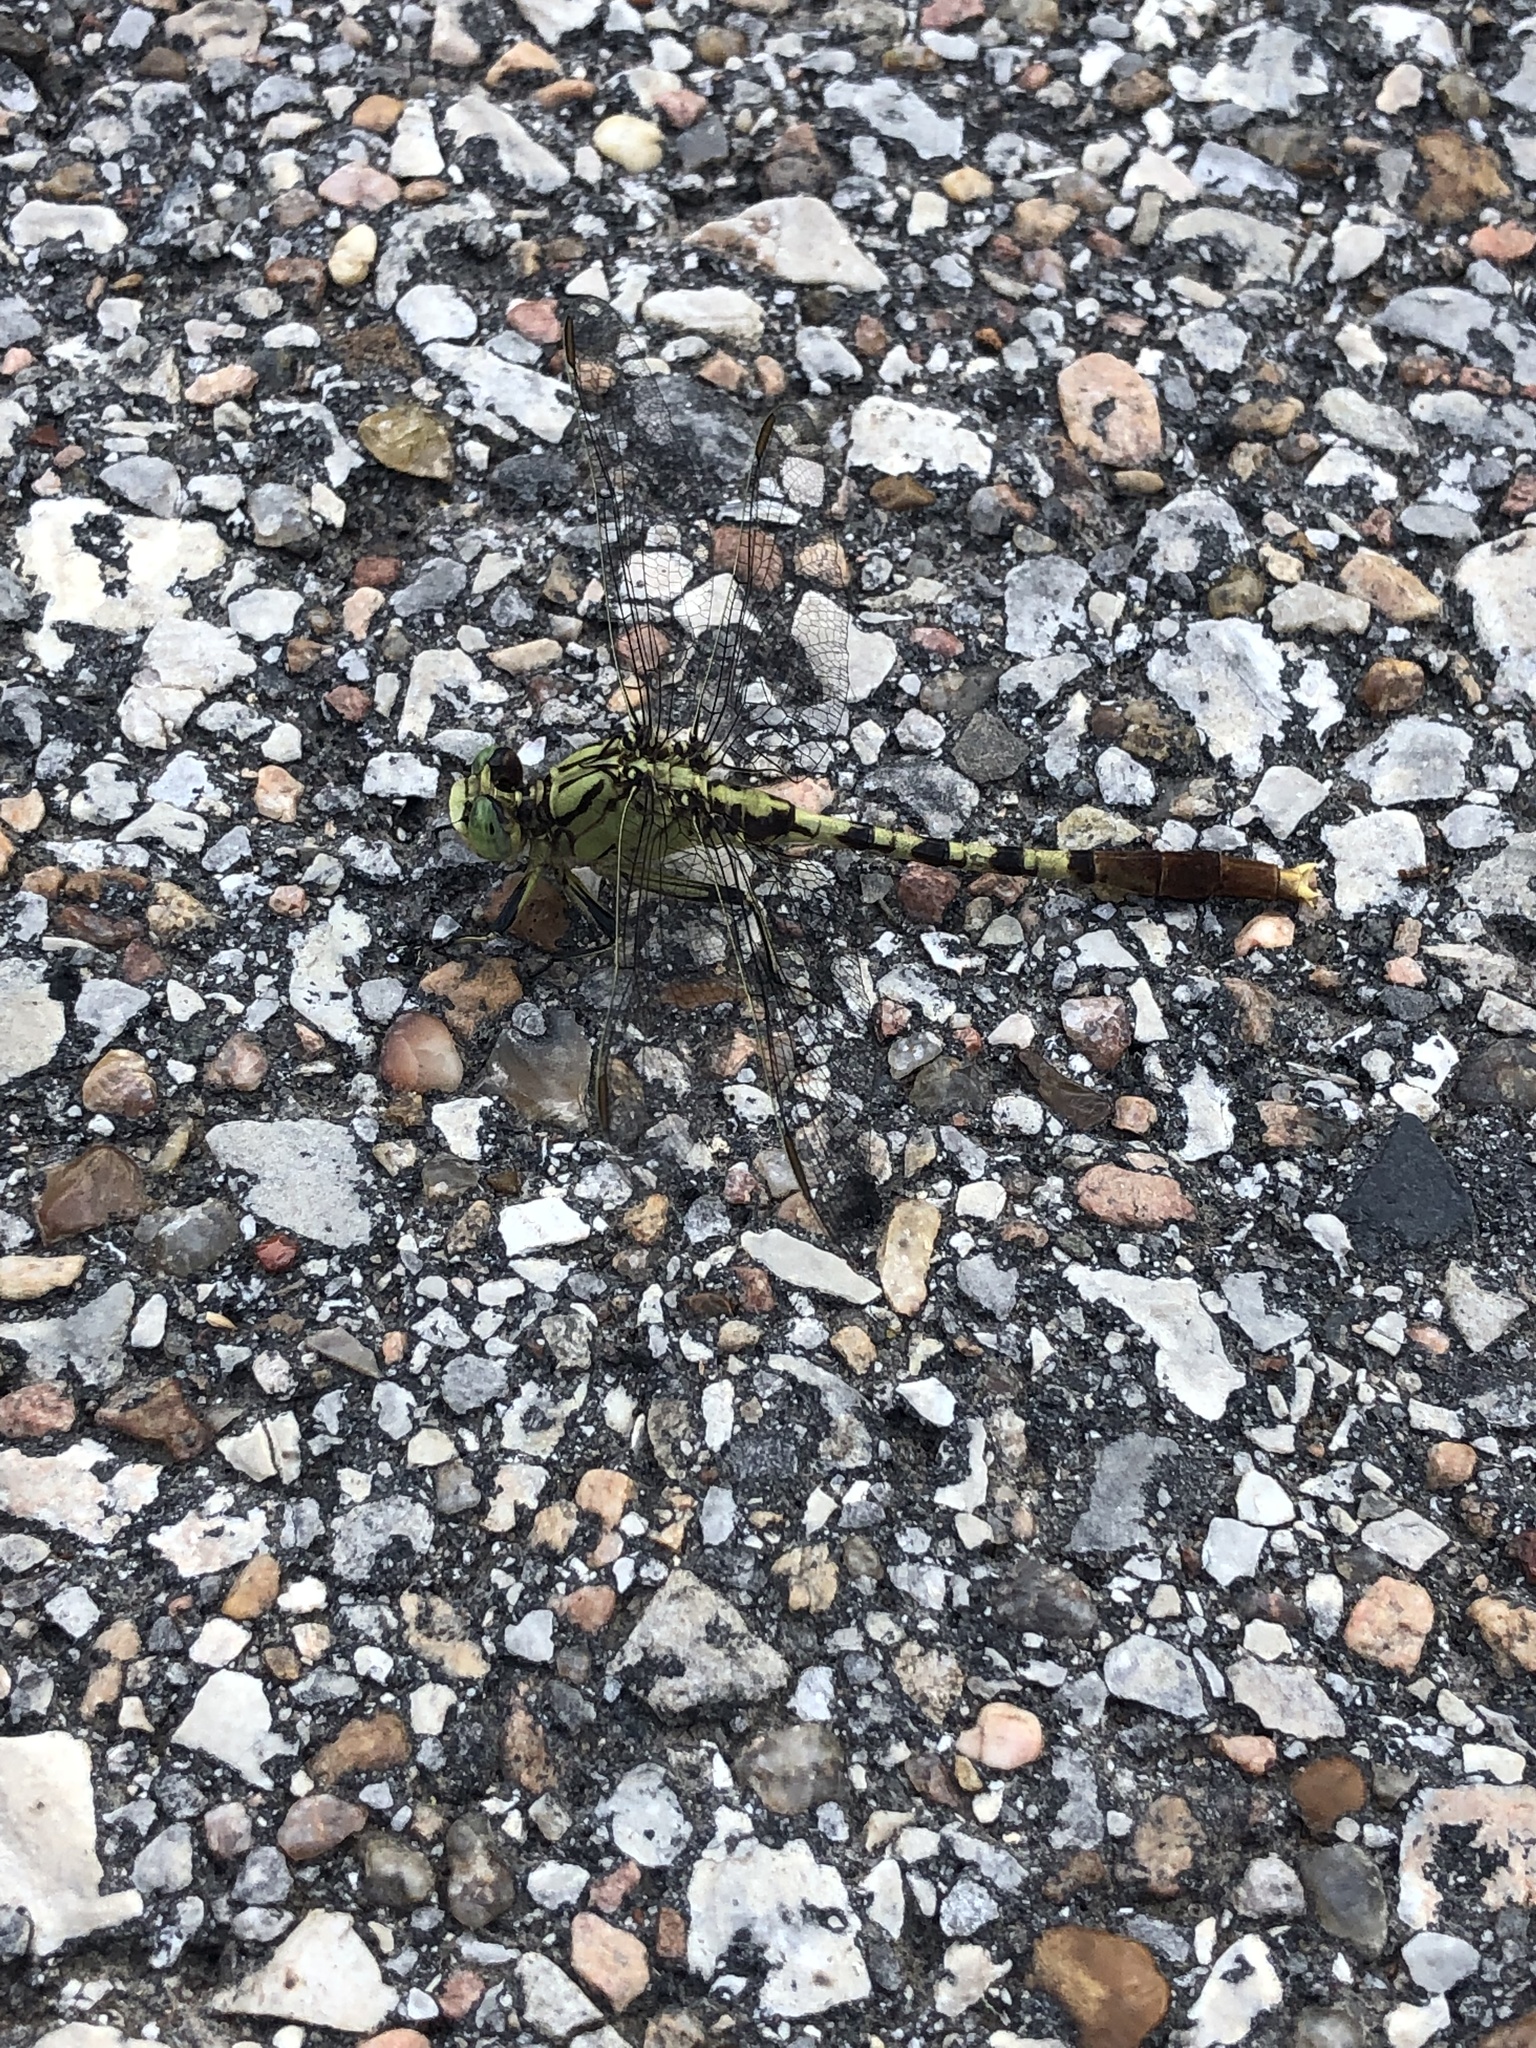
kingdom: Animalia
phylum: Arthropoda
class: Insecta
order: Odonata
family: Gomphidae
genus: Arigomphus
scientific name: Arigomphus submedianus
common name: Jade clubtail
